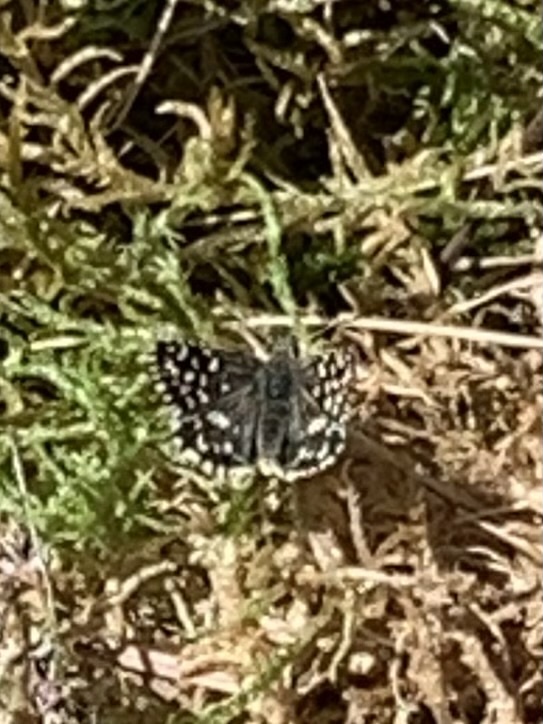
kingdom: Animalia
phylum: Arthropoda
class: Insecta
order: Lepidoptera
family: Hesperiidae
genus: Pyrgus
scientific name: Pyrgus malvae
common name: Grizzled skipper
